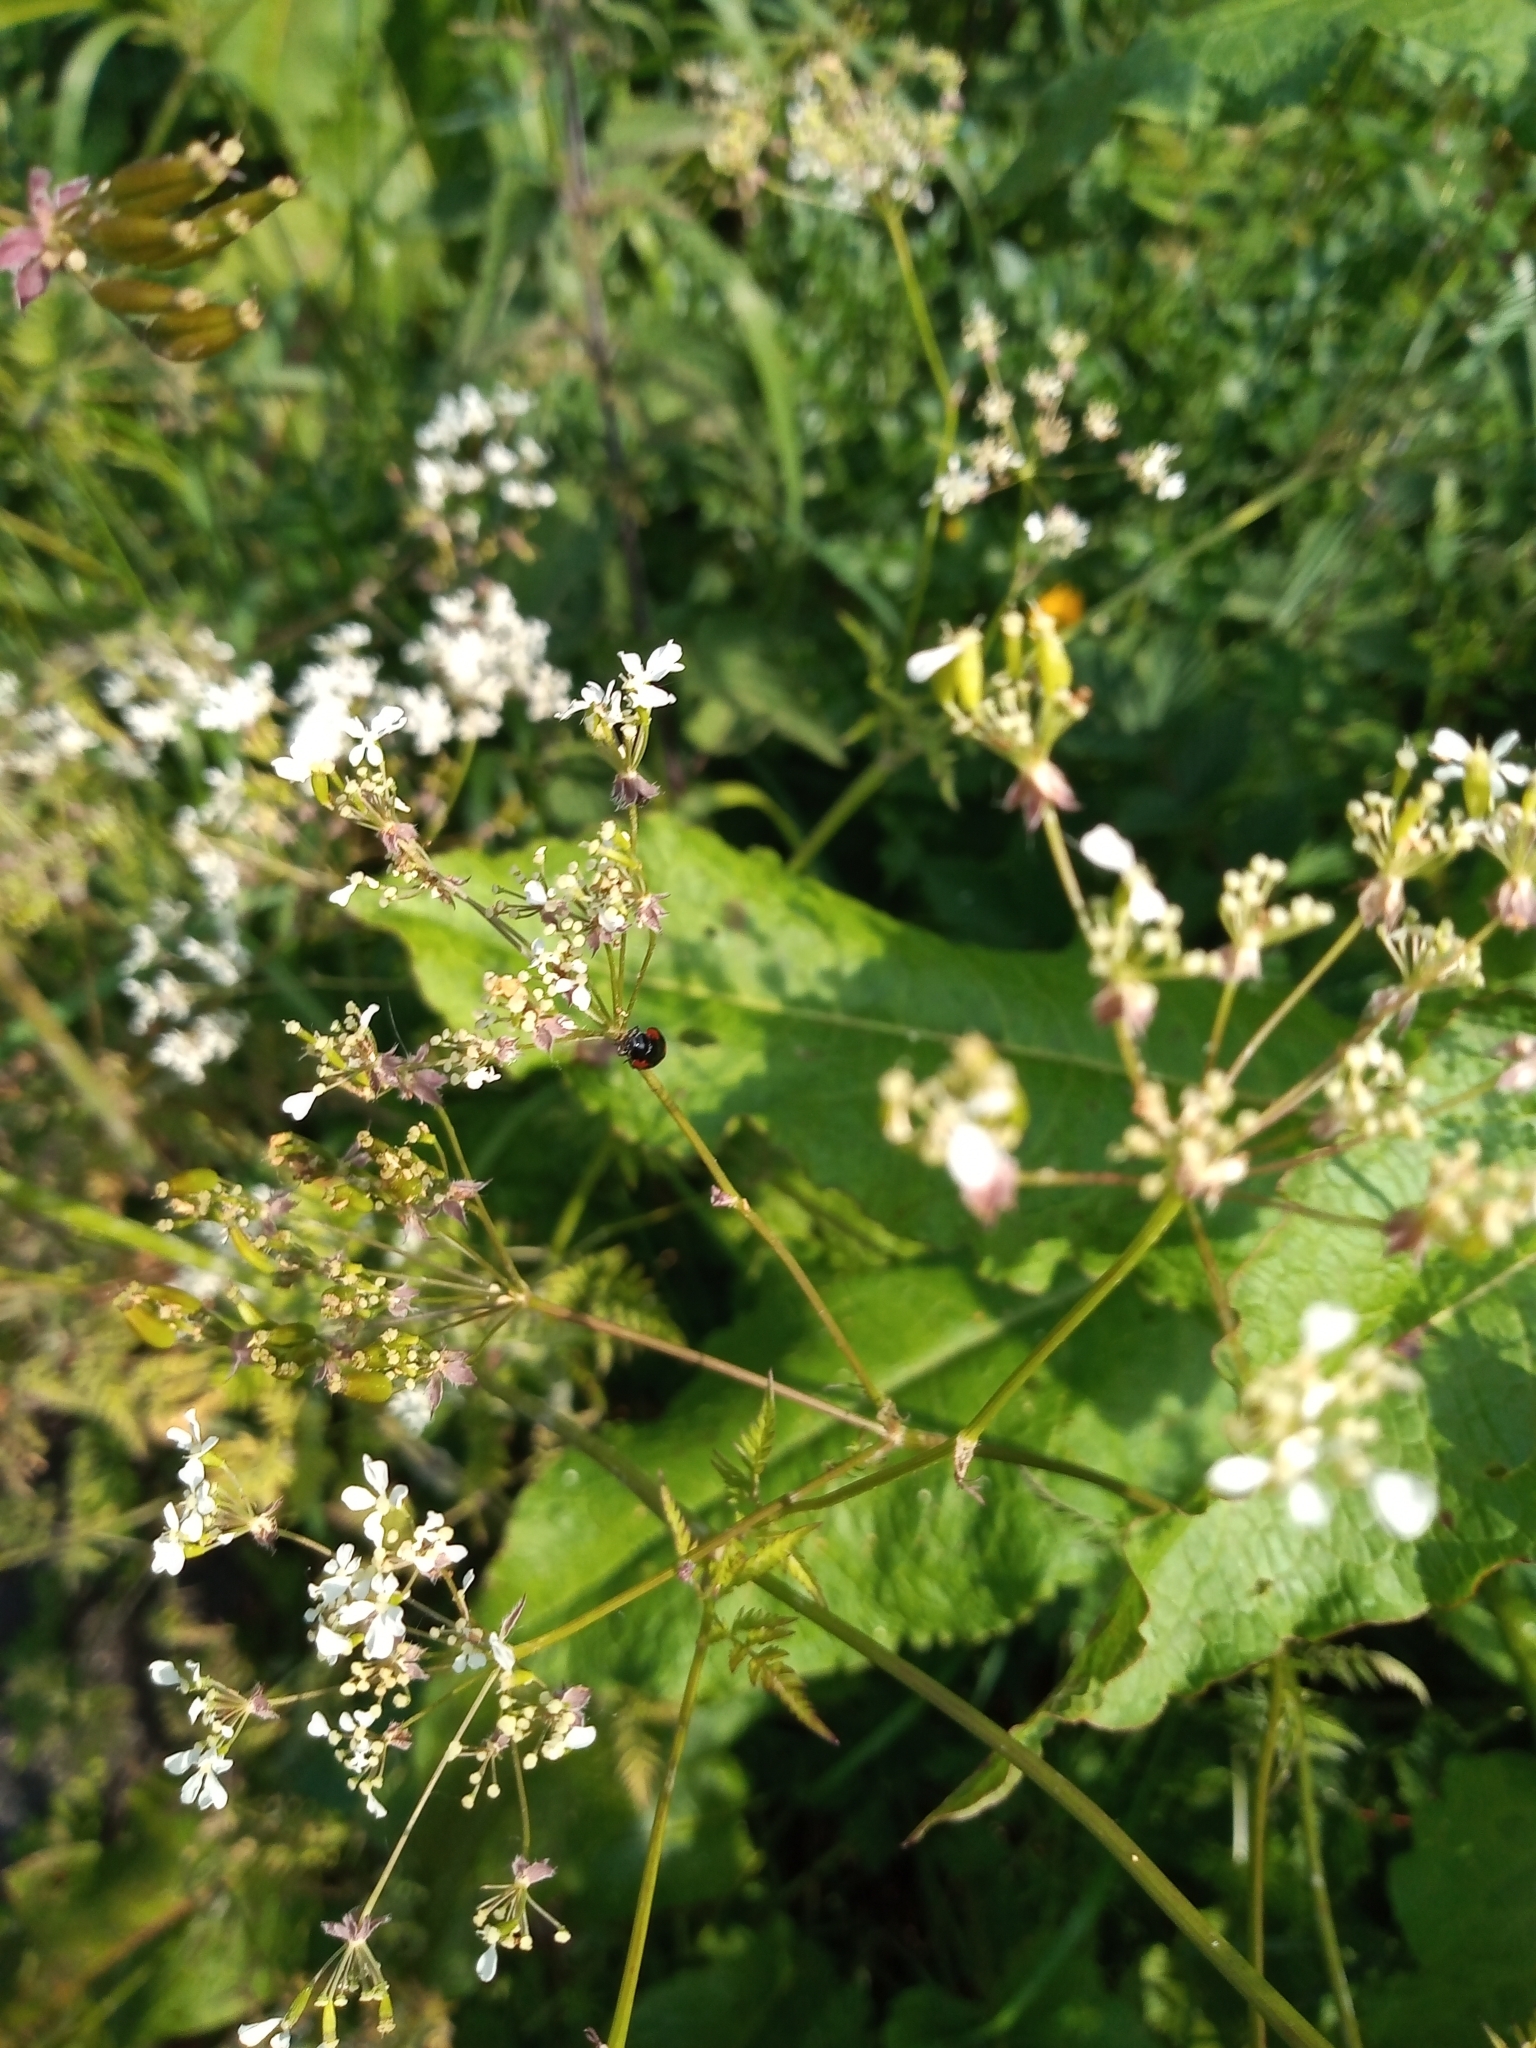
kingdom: Animalia
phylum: Arthropoda
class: Insecta
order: Coleoptera
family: Coccinellidae
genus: Adalia
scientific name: Adalia bipunctata
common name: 2-spot ladybird
